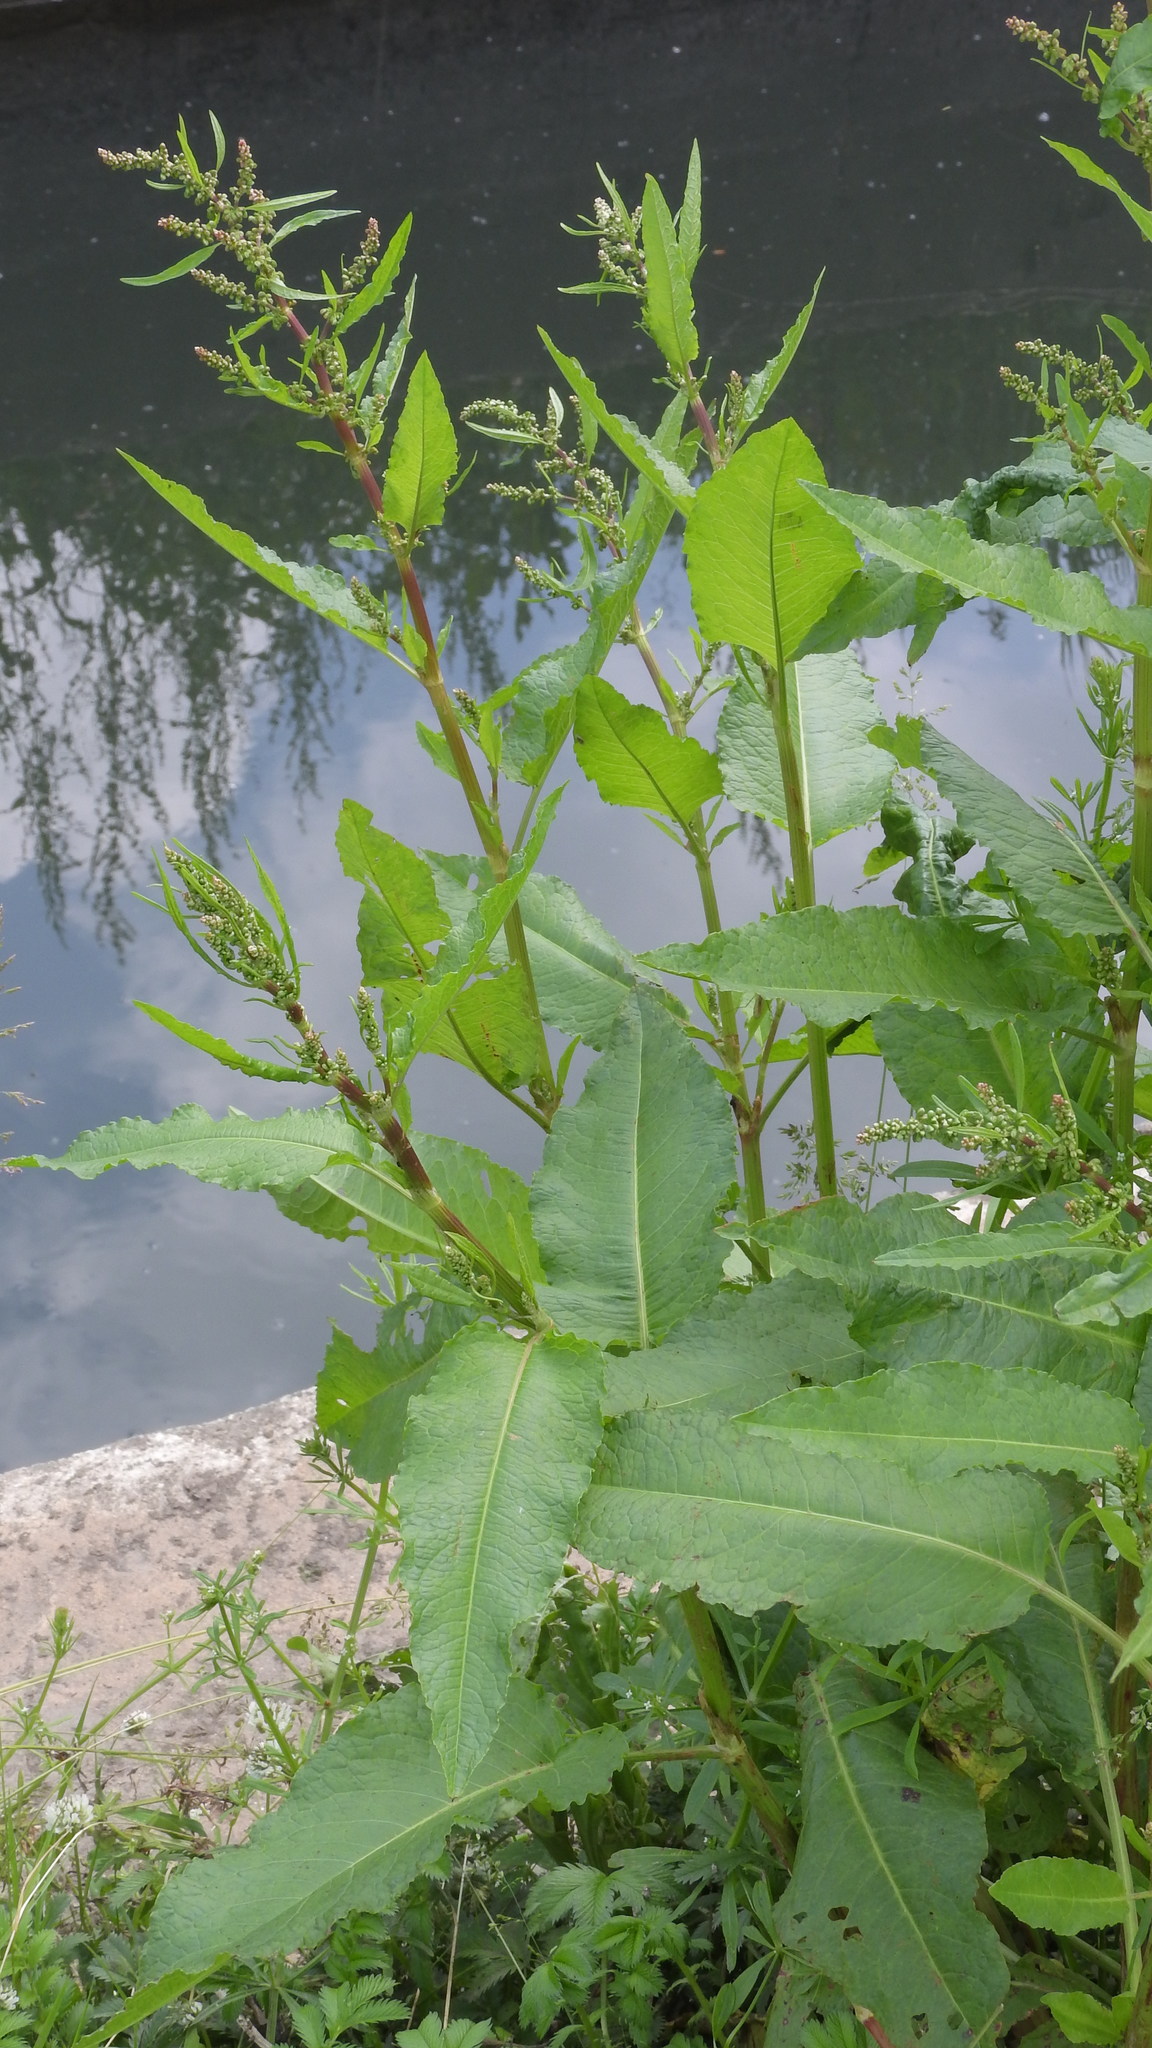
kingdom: Plantae
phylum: Tracheophyta
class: Magnoliopsida
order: Caryophyllales
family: Polygonaceae
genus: Rumex
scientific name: Rumex obtusifolius
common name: Bitter dock
